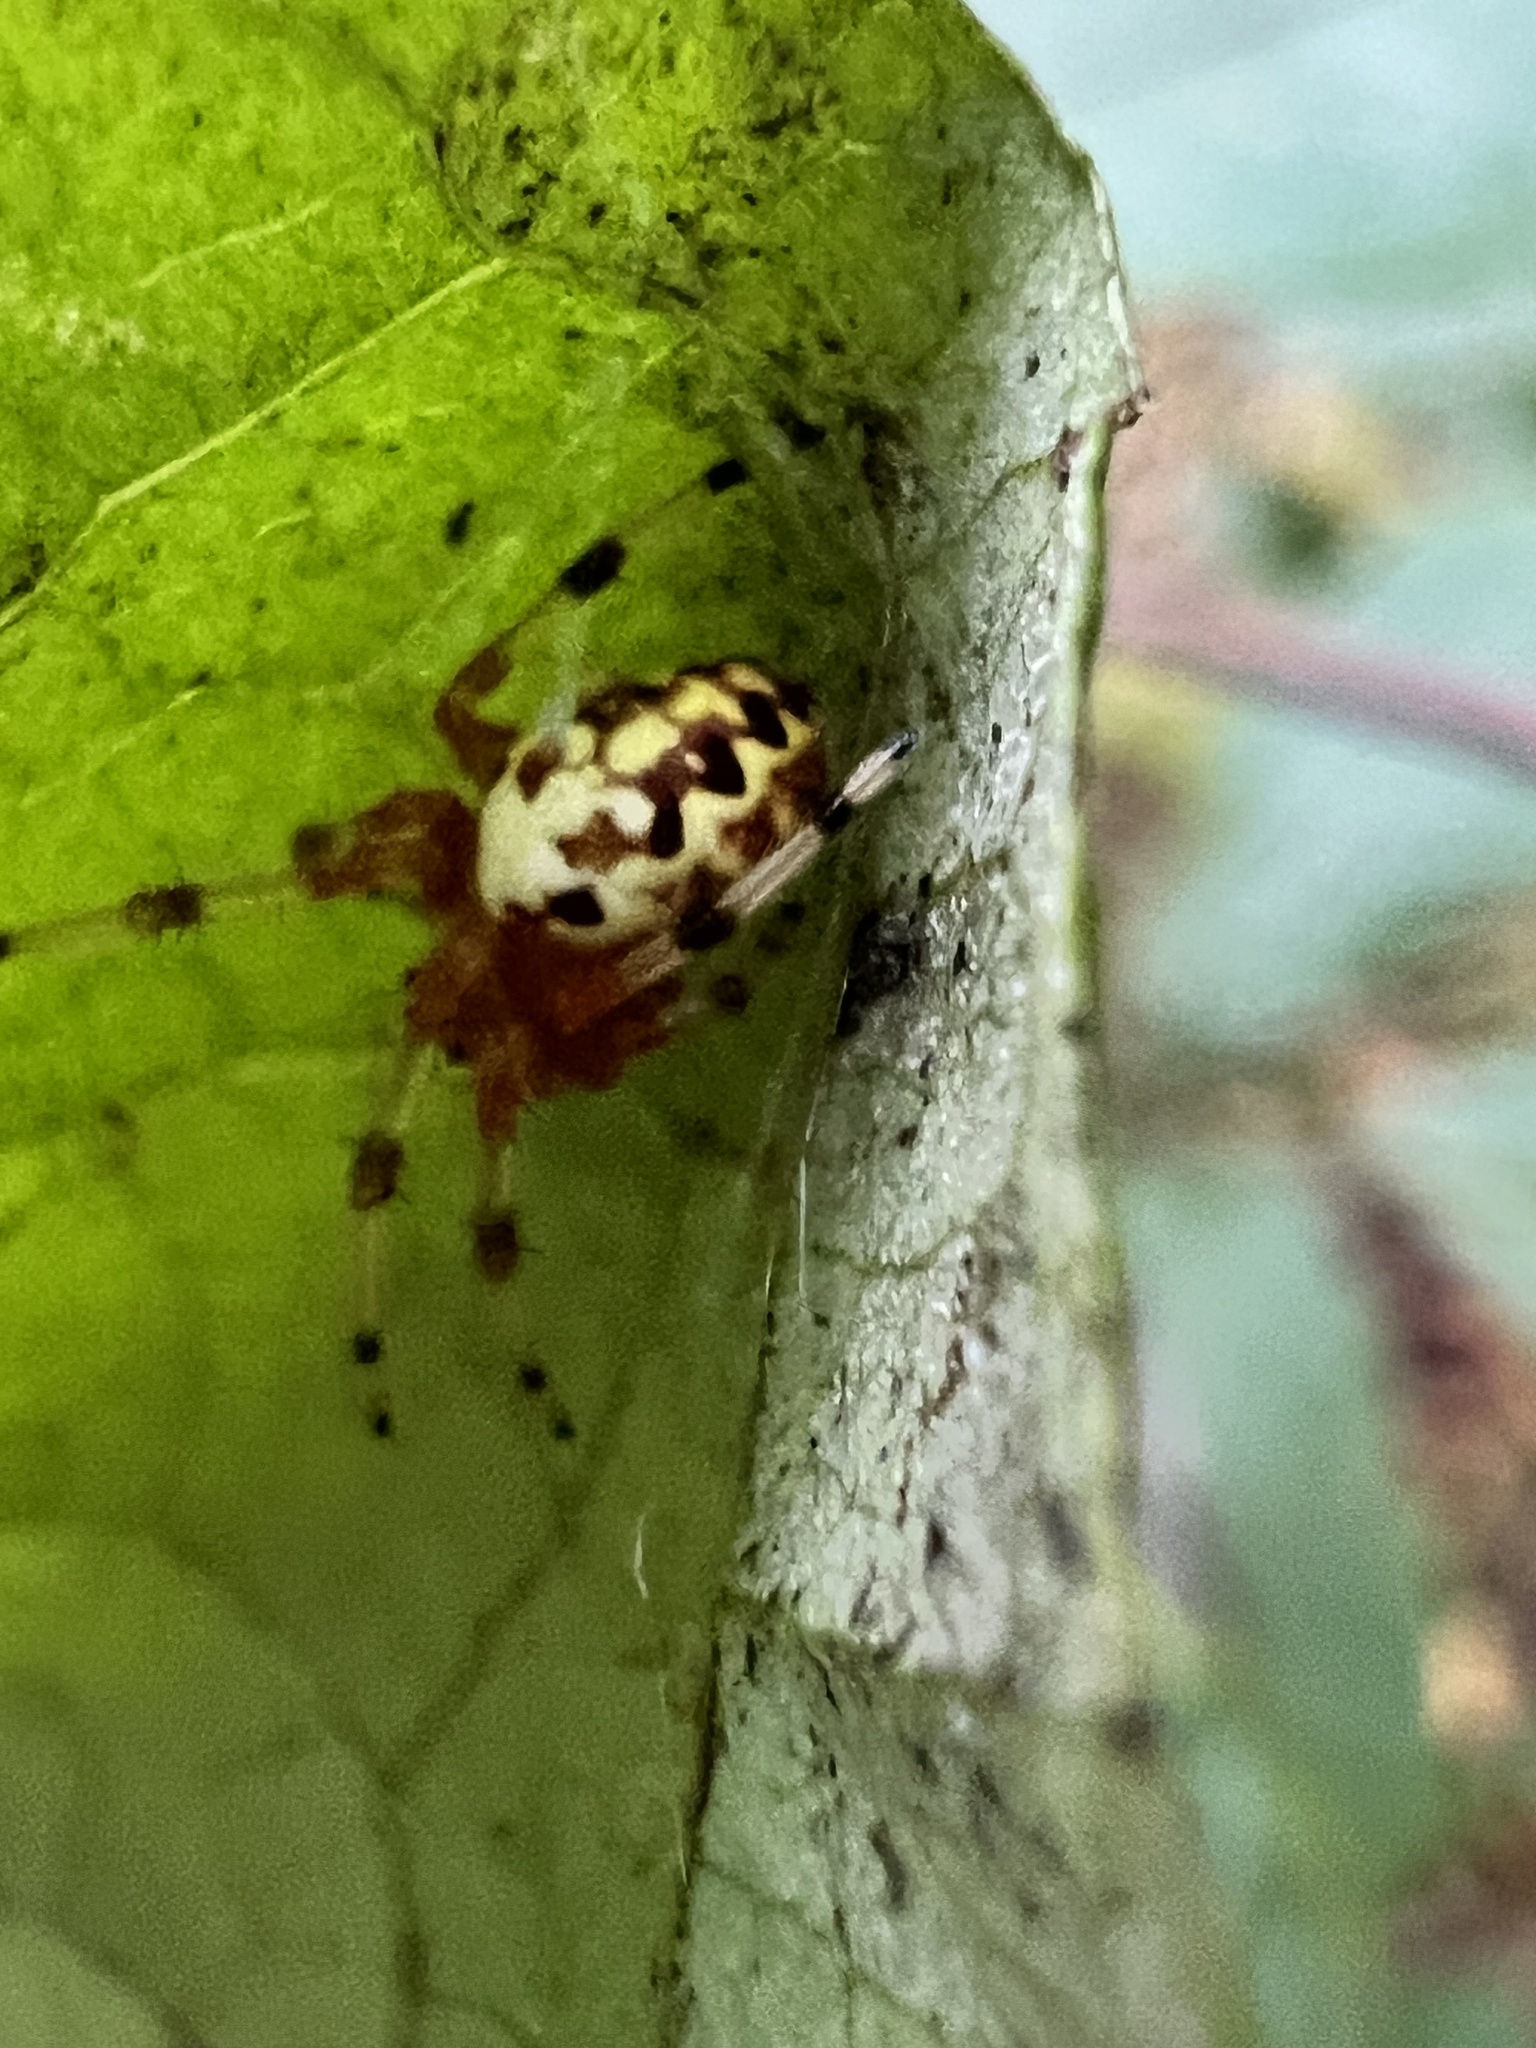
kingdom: Animalia
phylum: Arthropoda
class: Arachnida
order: Araneae
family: Araneidae
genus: Araneus
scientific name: Araneus marmoreus
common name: Marbled orbweaver
